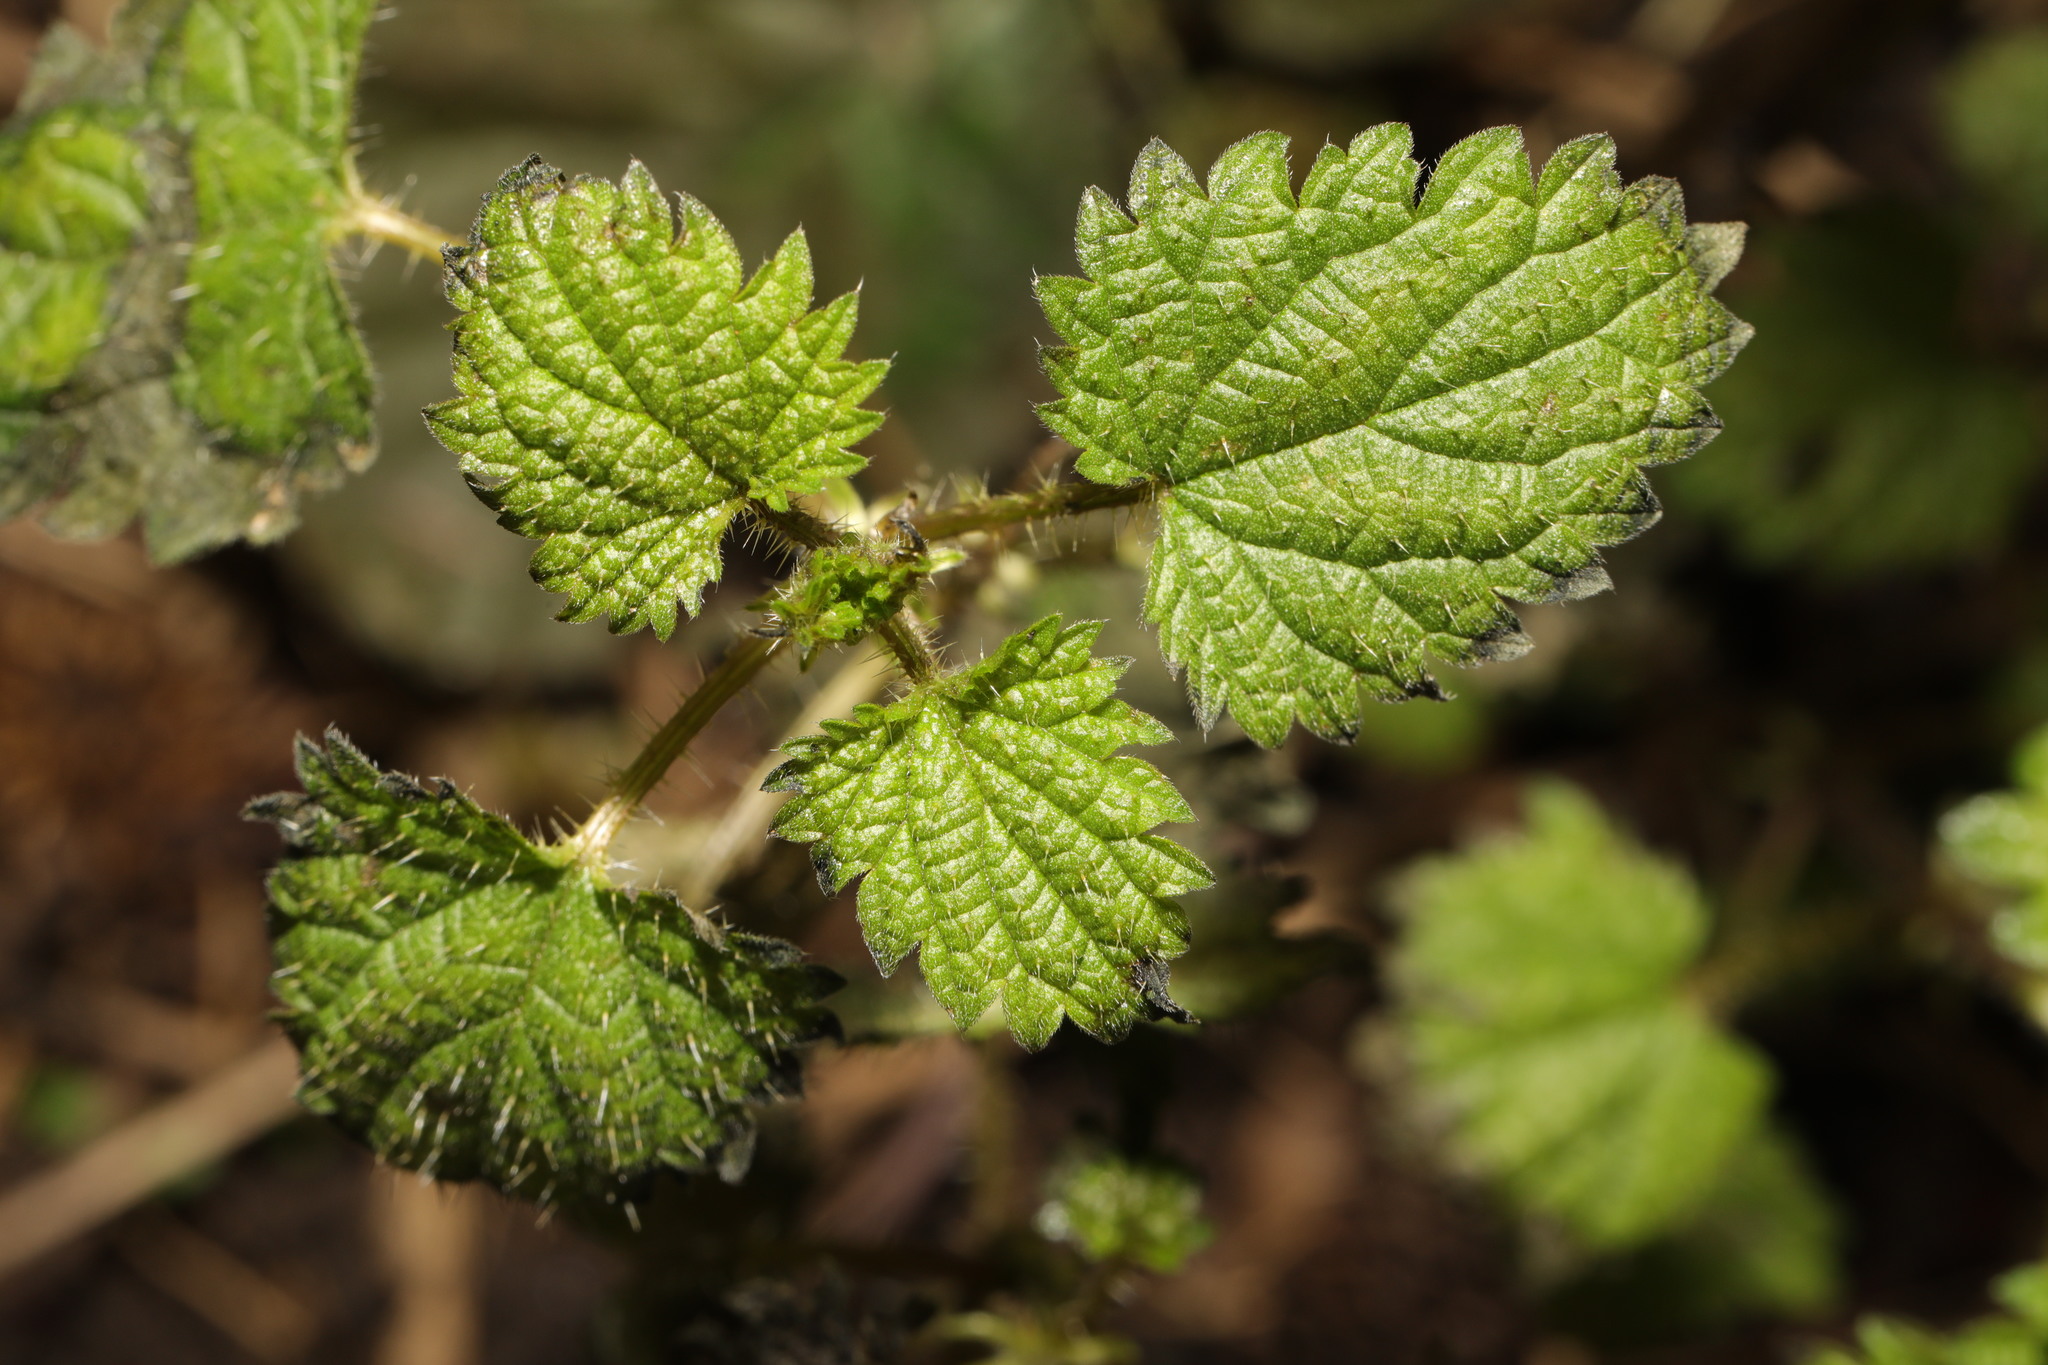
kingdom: Plantae
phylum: Tracheophyta
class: Magnoliopsida
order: Rosales
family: Urticaceae
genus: Urtica
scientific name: Urtica dioica
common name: Common nettle
